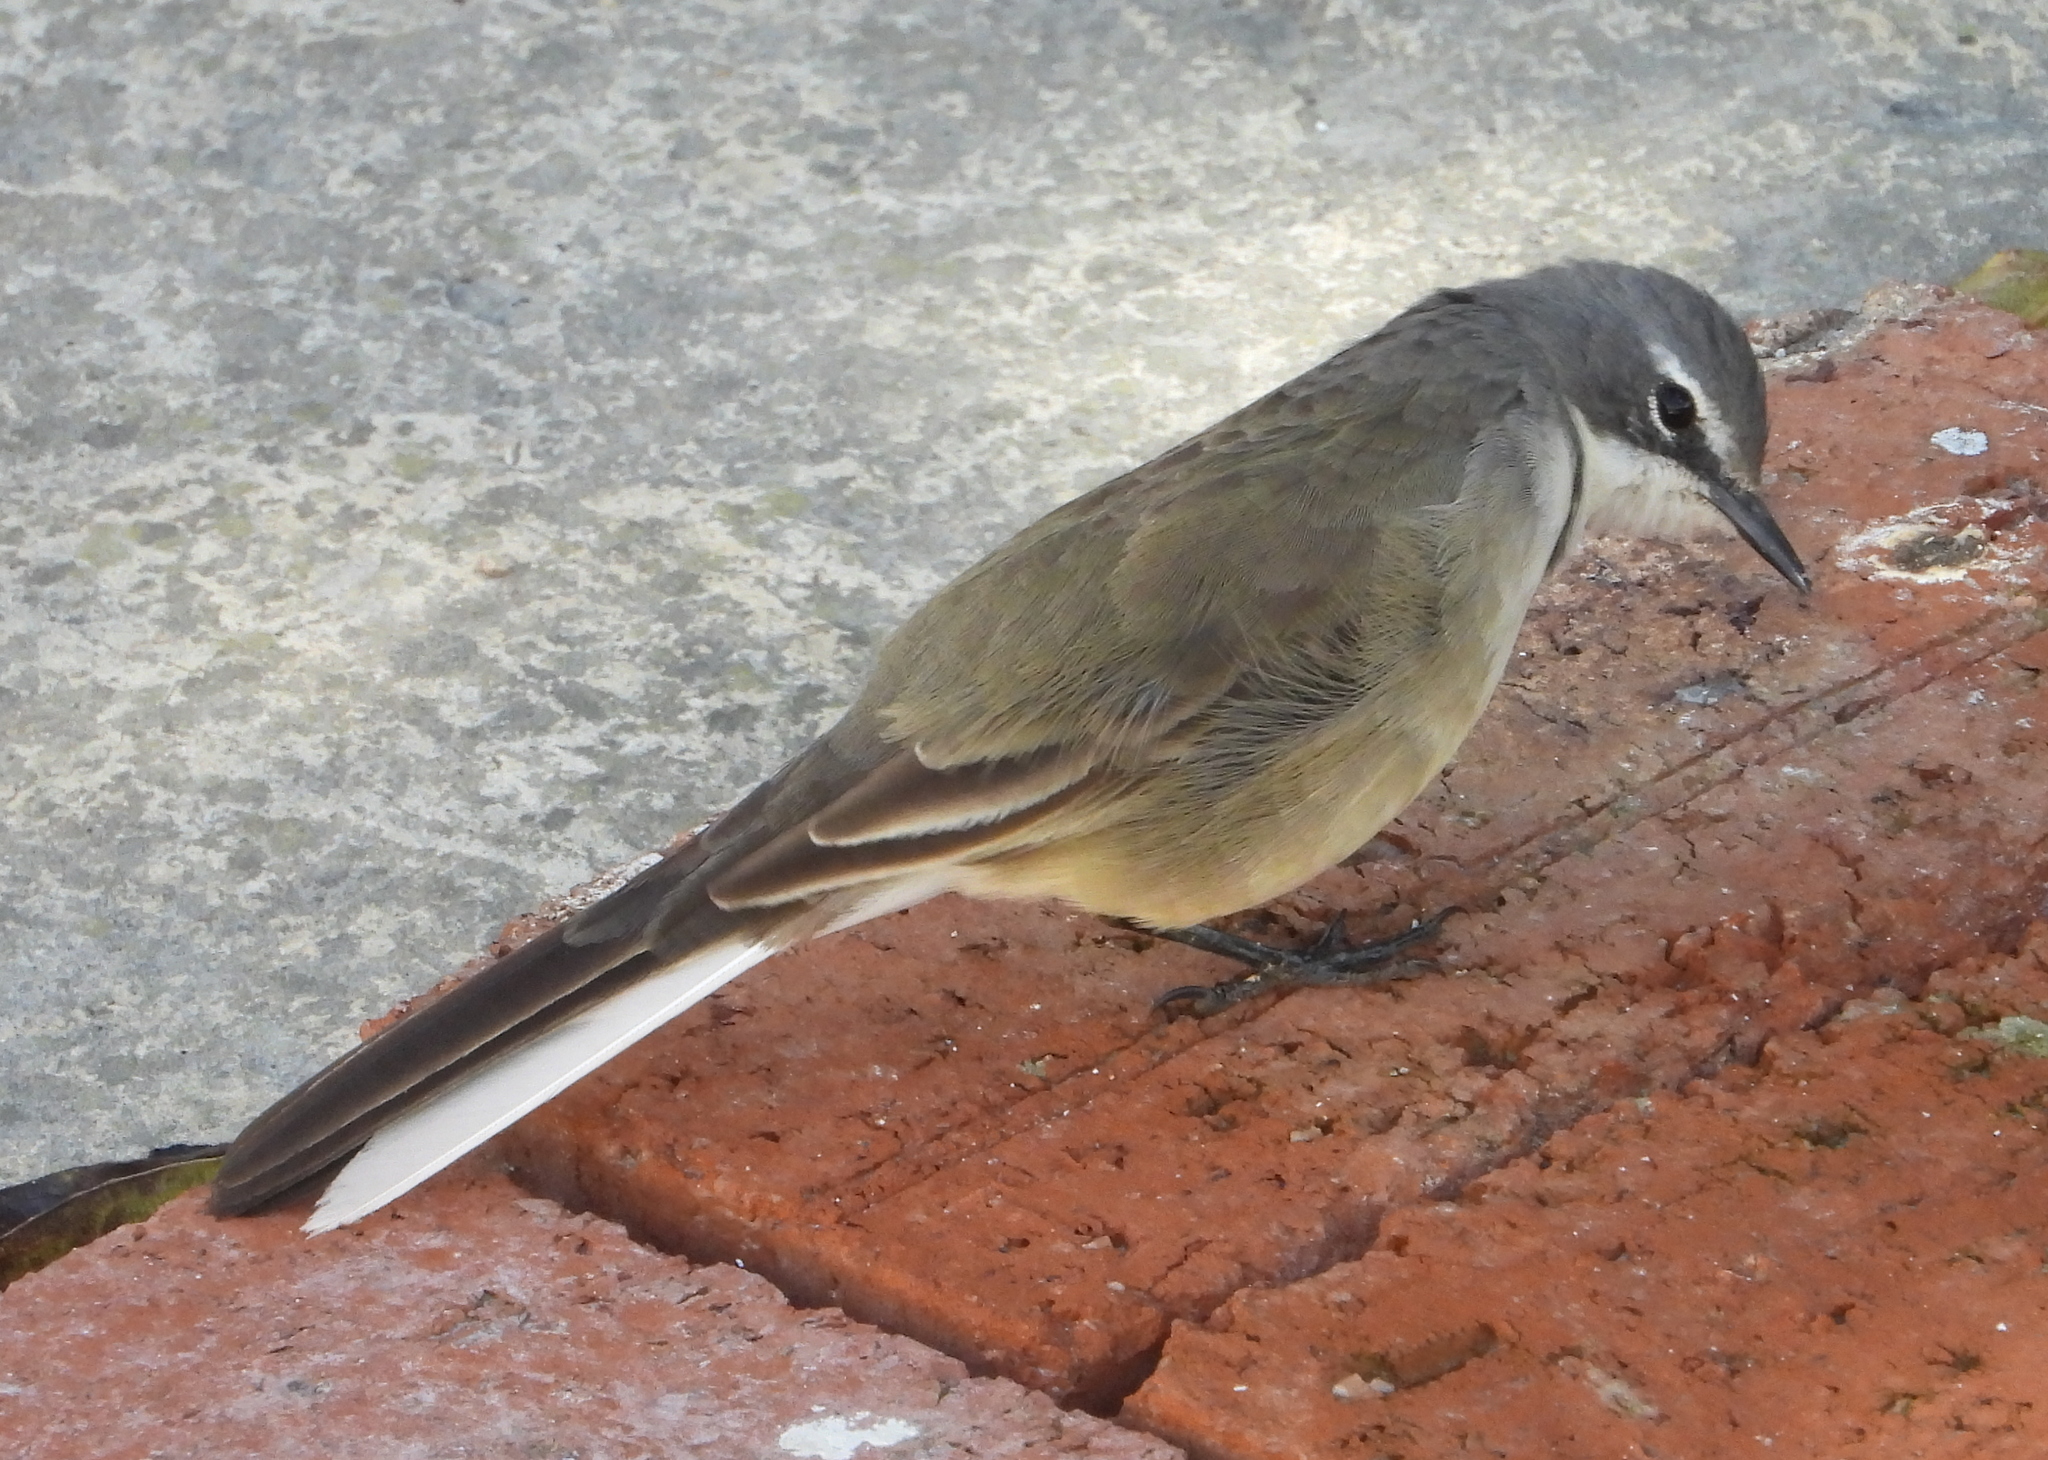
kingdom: Animalia
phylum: Chordata
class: Aves
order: Passeriformes
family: Motacillidae
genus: Motacilla
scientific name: Motacilla capensis
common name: Cape wagtail
